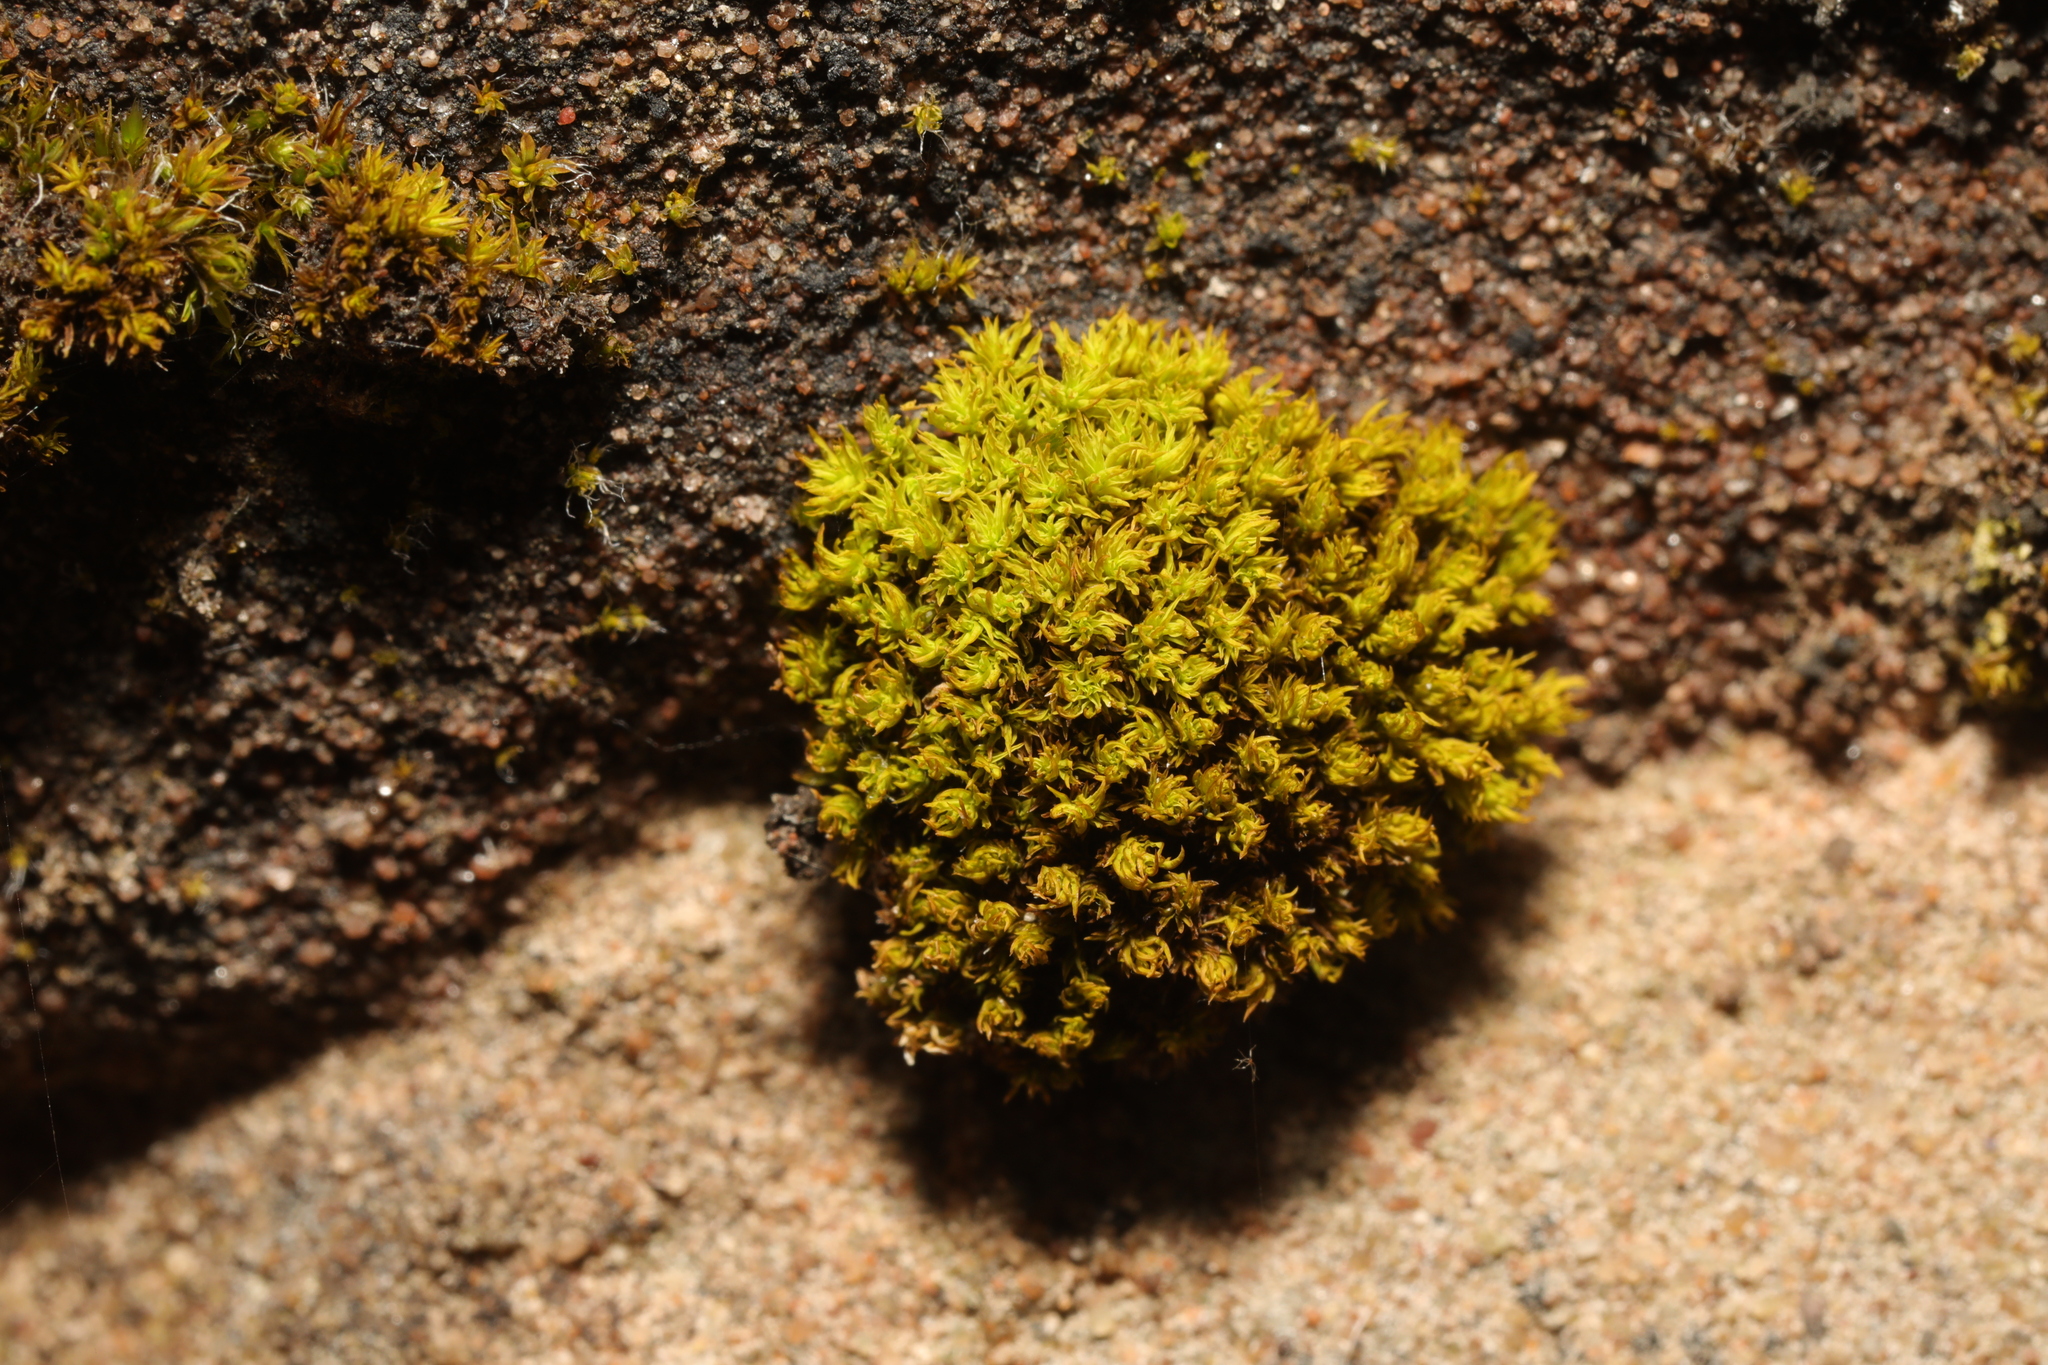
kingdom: Plantae
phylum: Bryophyta
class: Bryopsida
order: Pottiales
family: Pottiaceae
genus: Trichostomum
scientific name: Trichostomum
